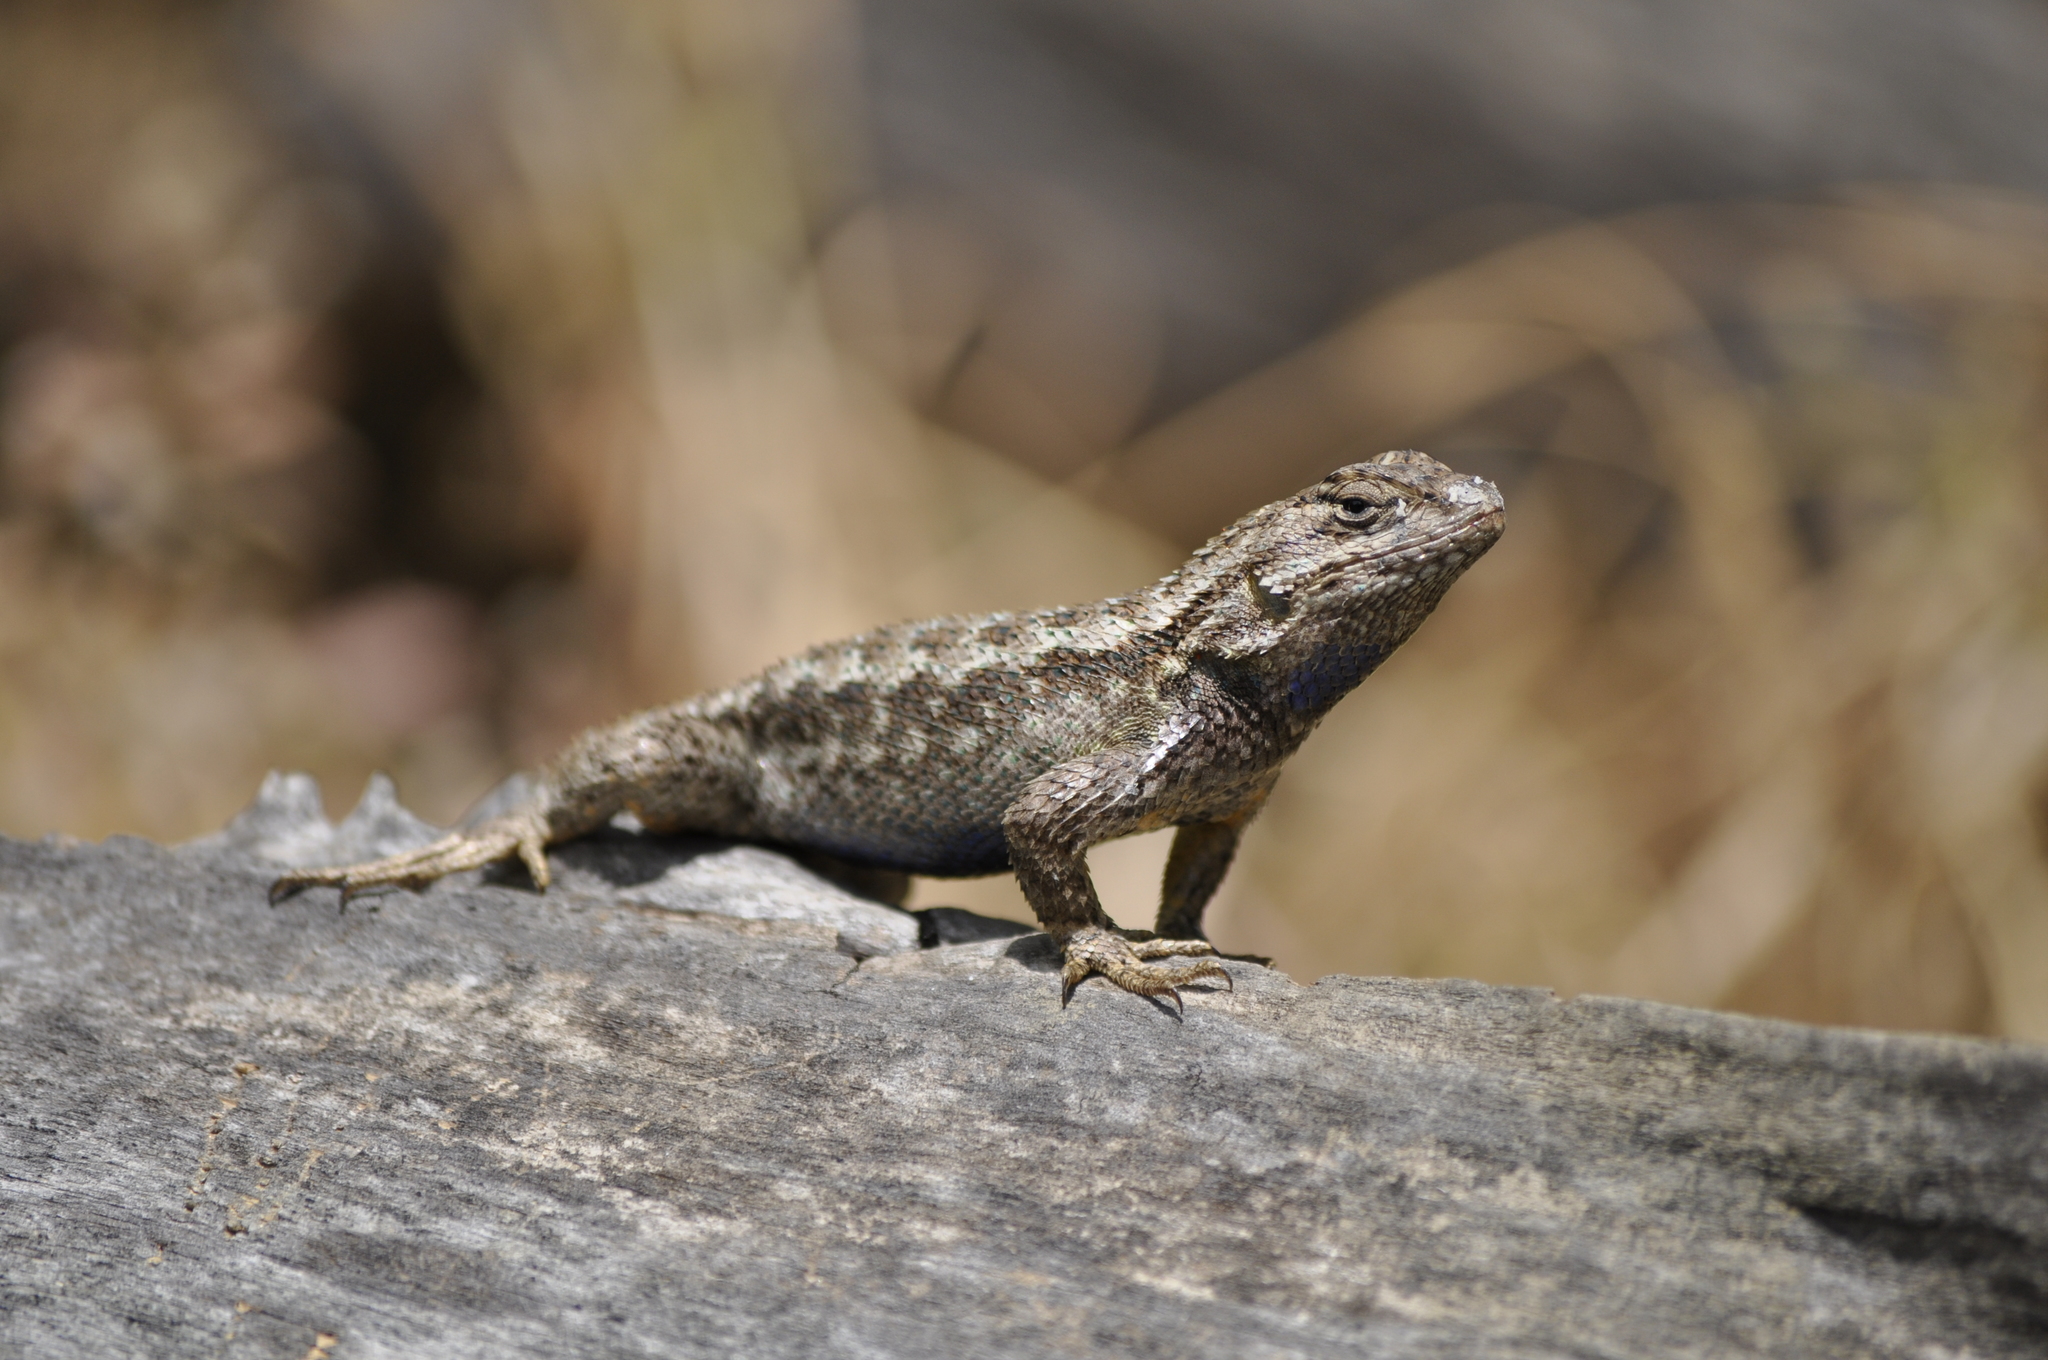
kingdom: Animalia
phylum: Chordata
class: Squamata
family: Phrynosomatidae
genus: Sceloporus
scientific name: Sceloporus occidentalis
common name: Western fence lizard
